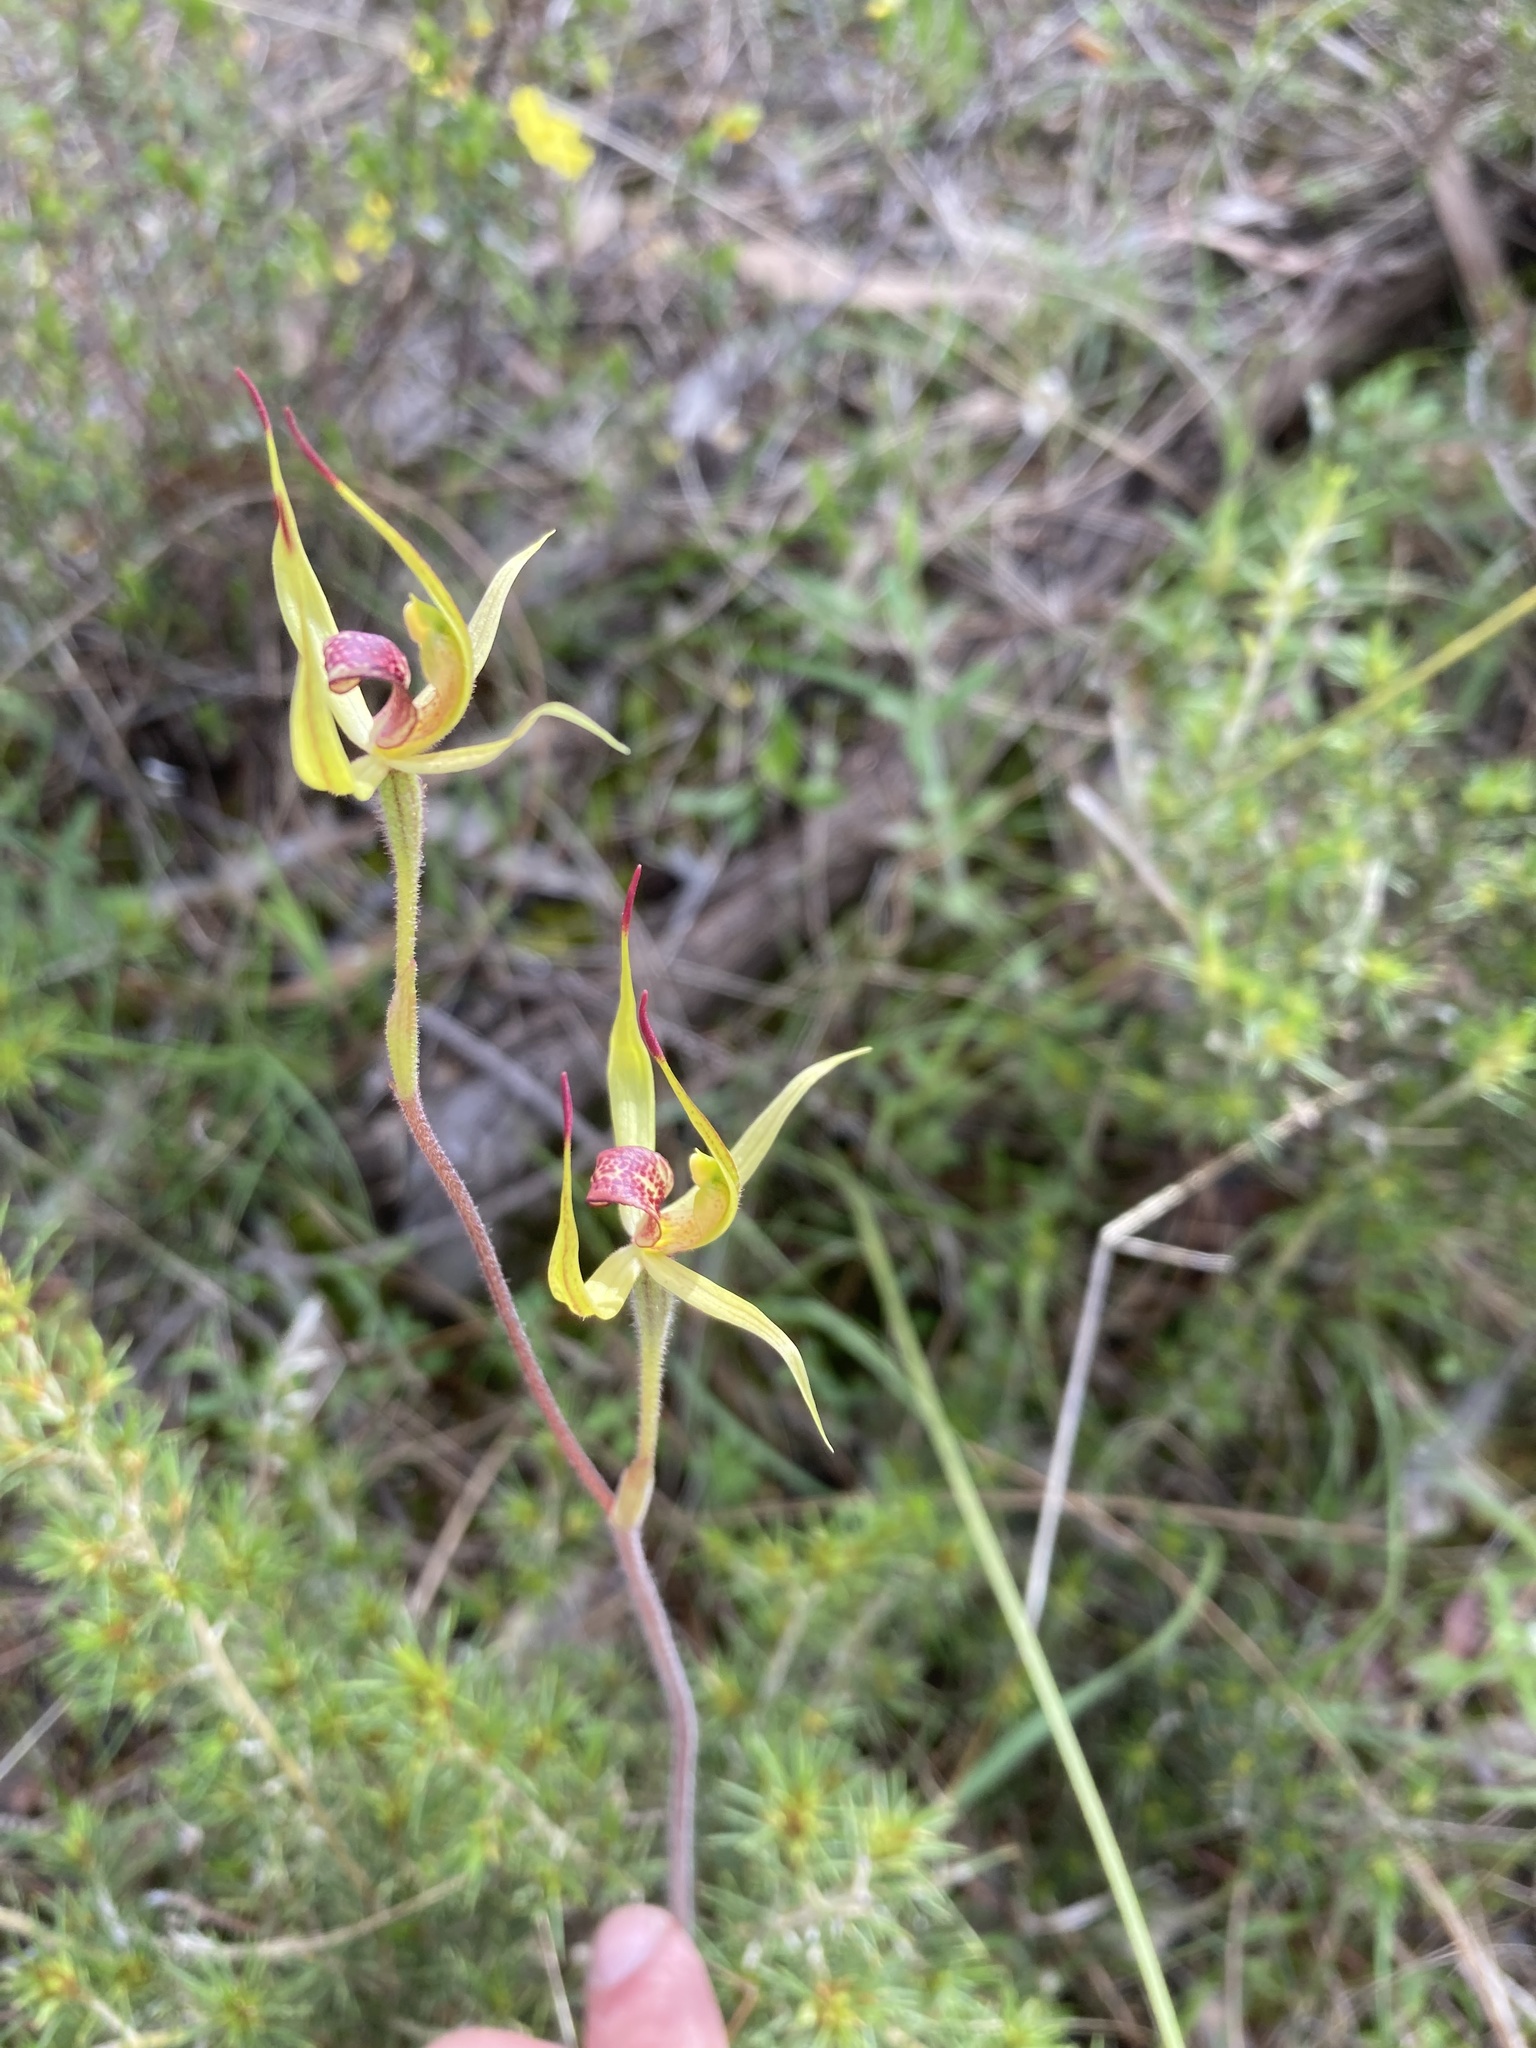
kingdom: Plantae
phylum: Tracheophyta
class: Liliopsida
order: Asparagales
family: Orchidaceae
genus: Caladenia
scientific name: Caladenia leptochila
